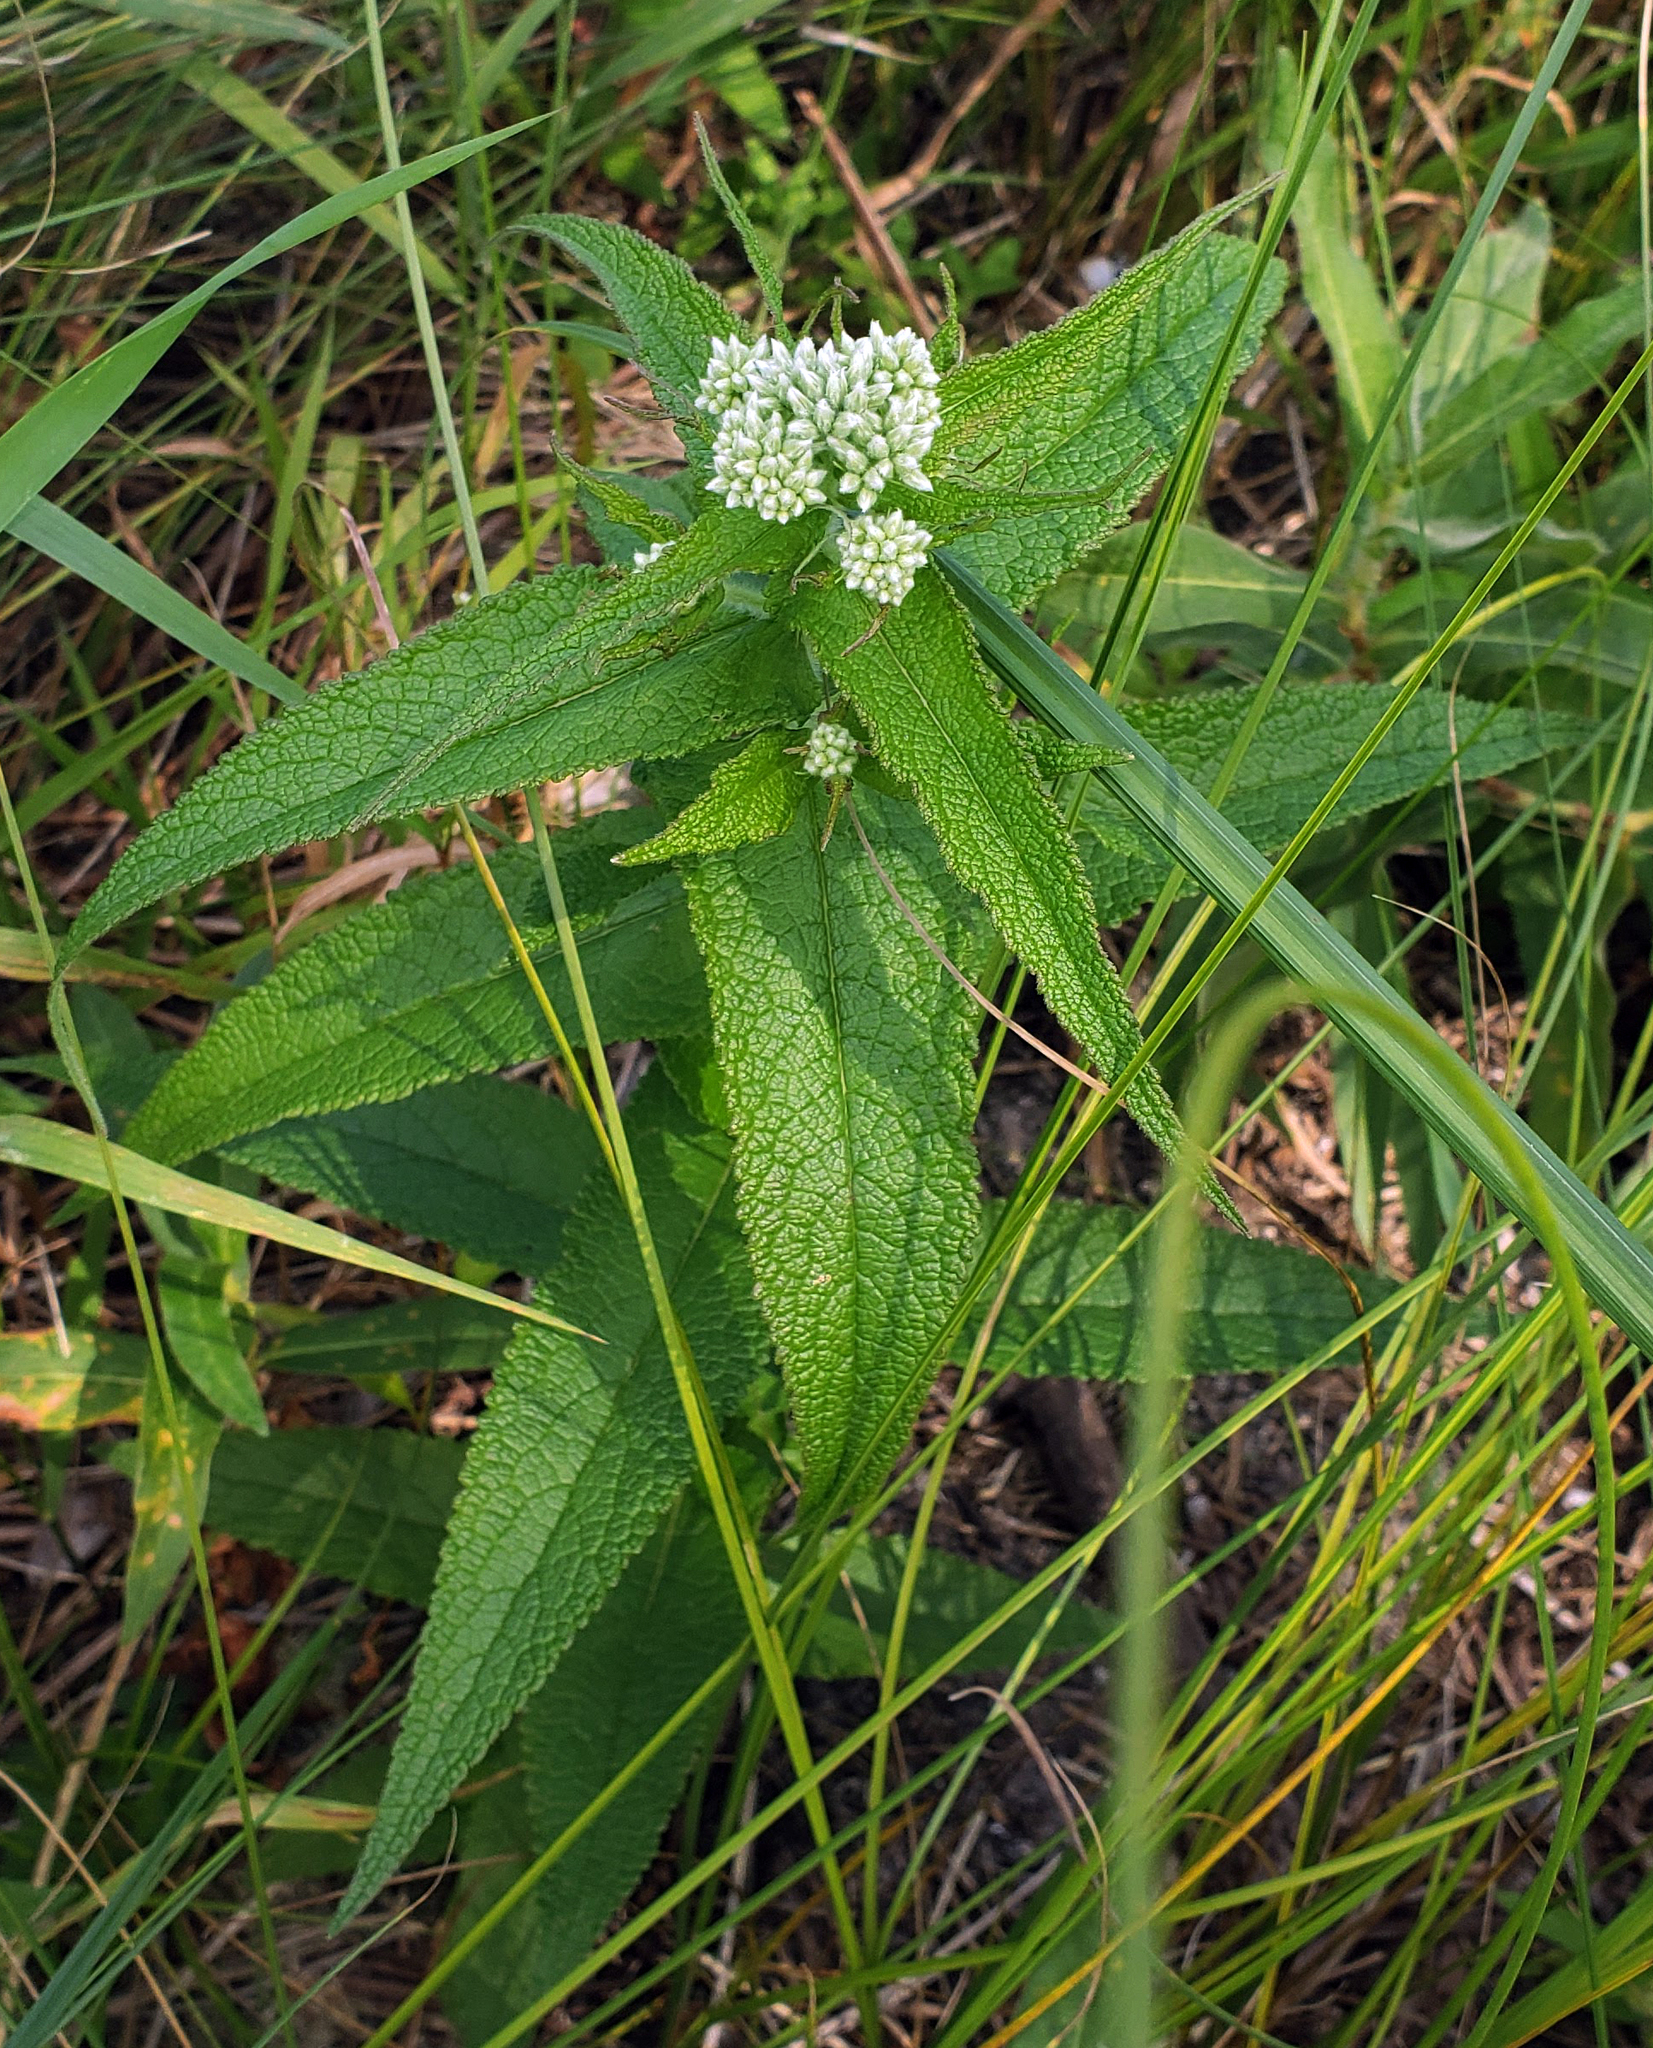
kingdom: Plantae
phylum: Tracheophyta
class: Magnoliopsida
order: Asterales
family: Asteraceae
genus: Eupatorium
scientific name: Eupatorium perfoliatum
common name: Boneset
